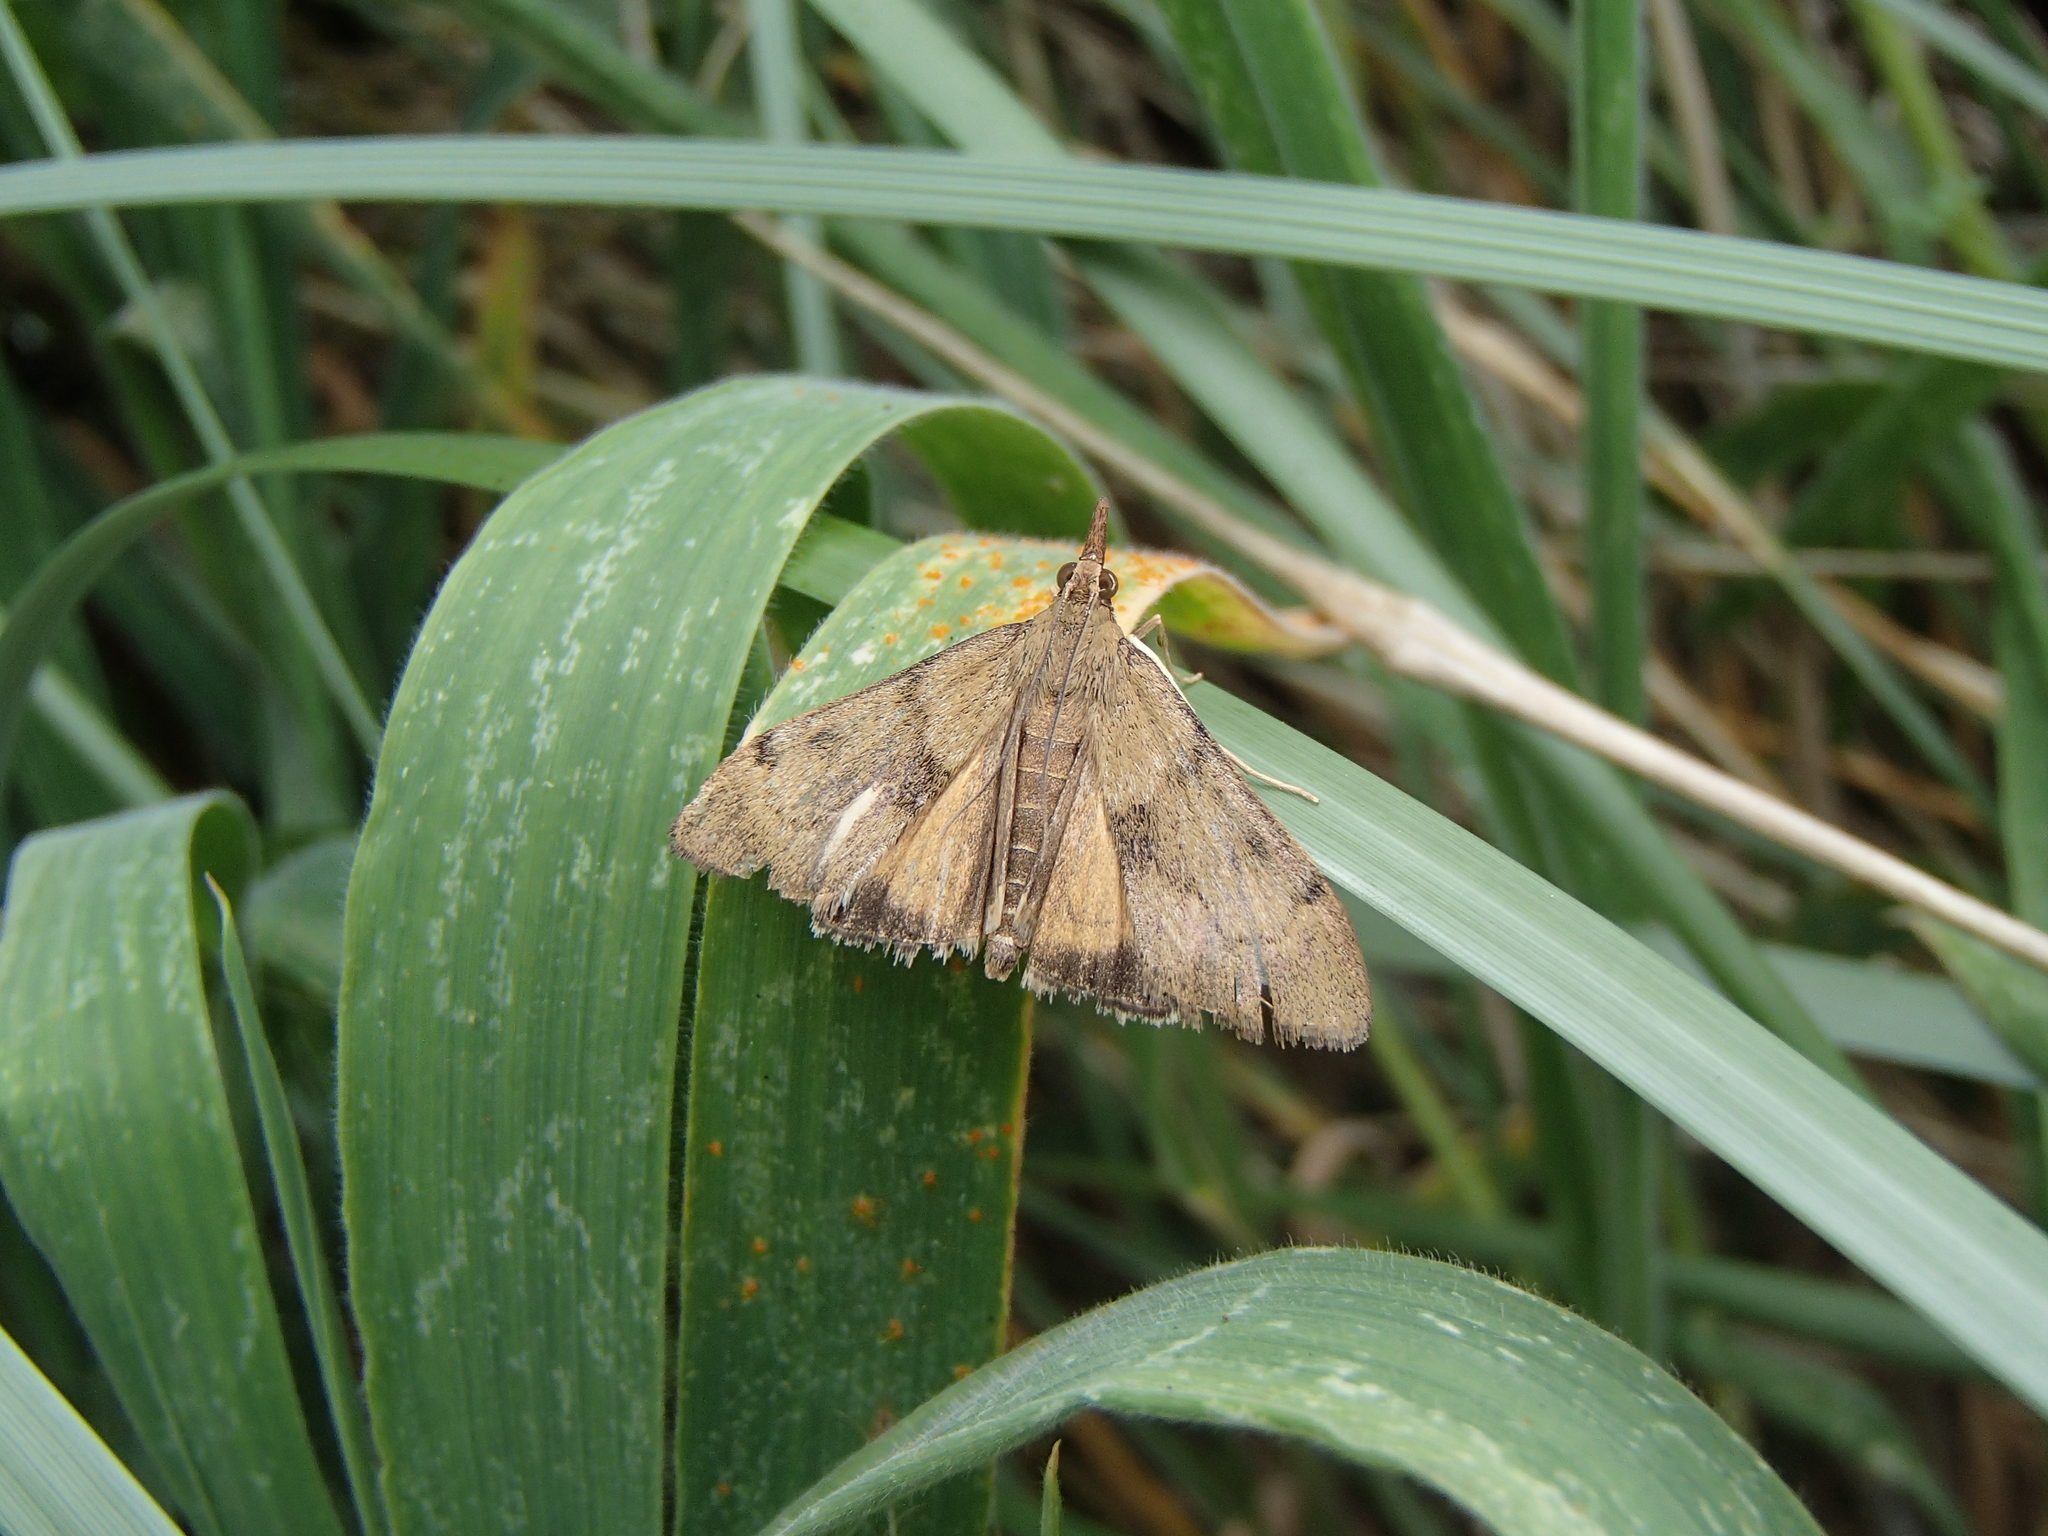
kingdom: Animalia
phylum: Arthropoda
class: Insecta
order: Lepidoptera
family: Crambidae
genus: Uresiphita
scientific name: Uresiphita
